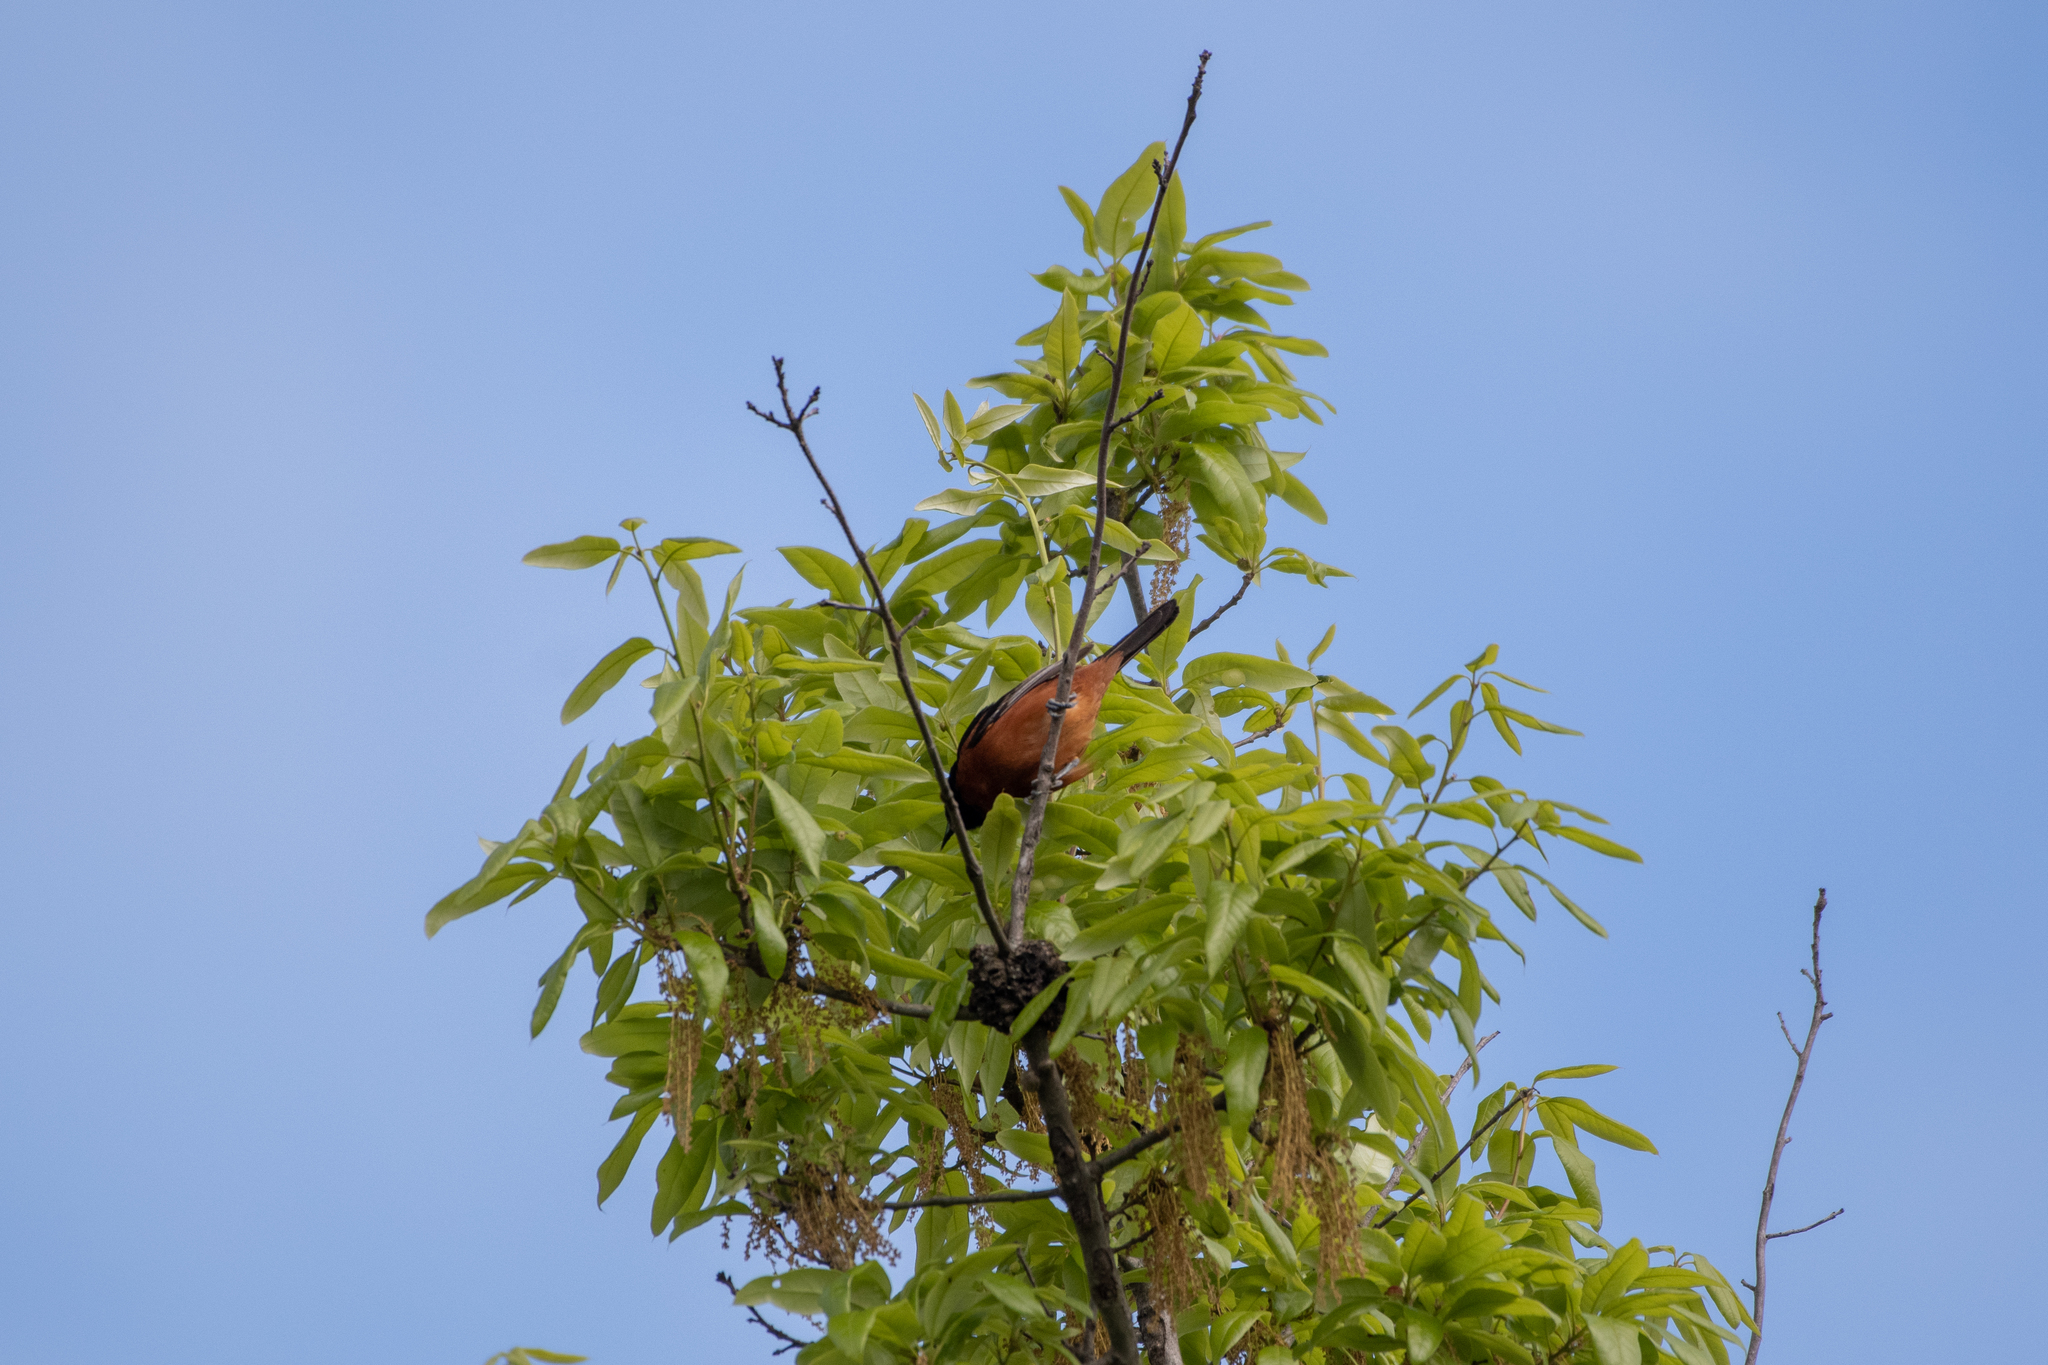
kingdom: Animalia
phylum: Chordata
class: Aves
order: Passeriformes
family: Icteridae
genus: Icterus
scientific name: Icterus spurius
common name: Orchard oriole
